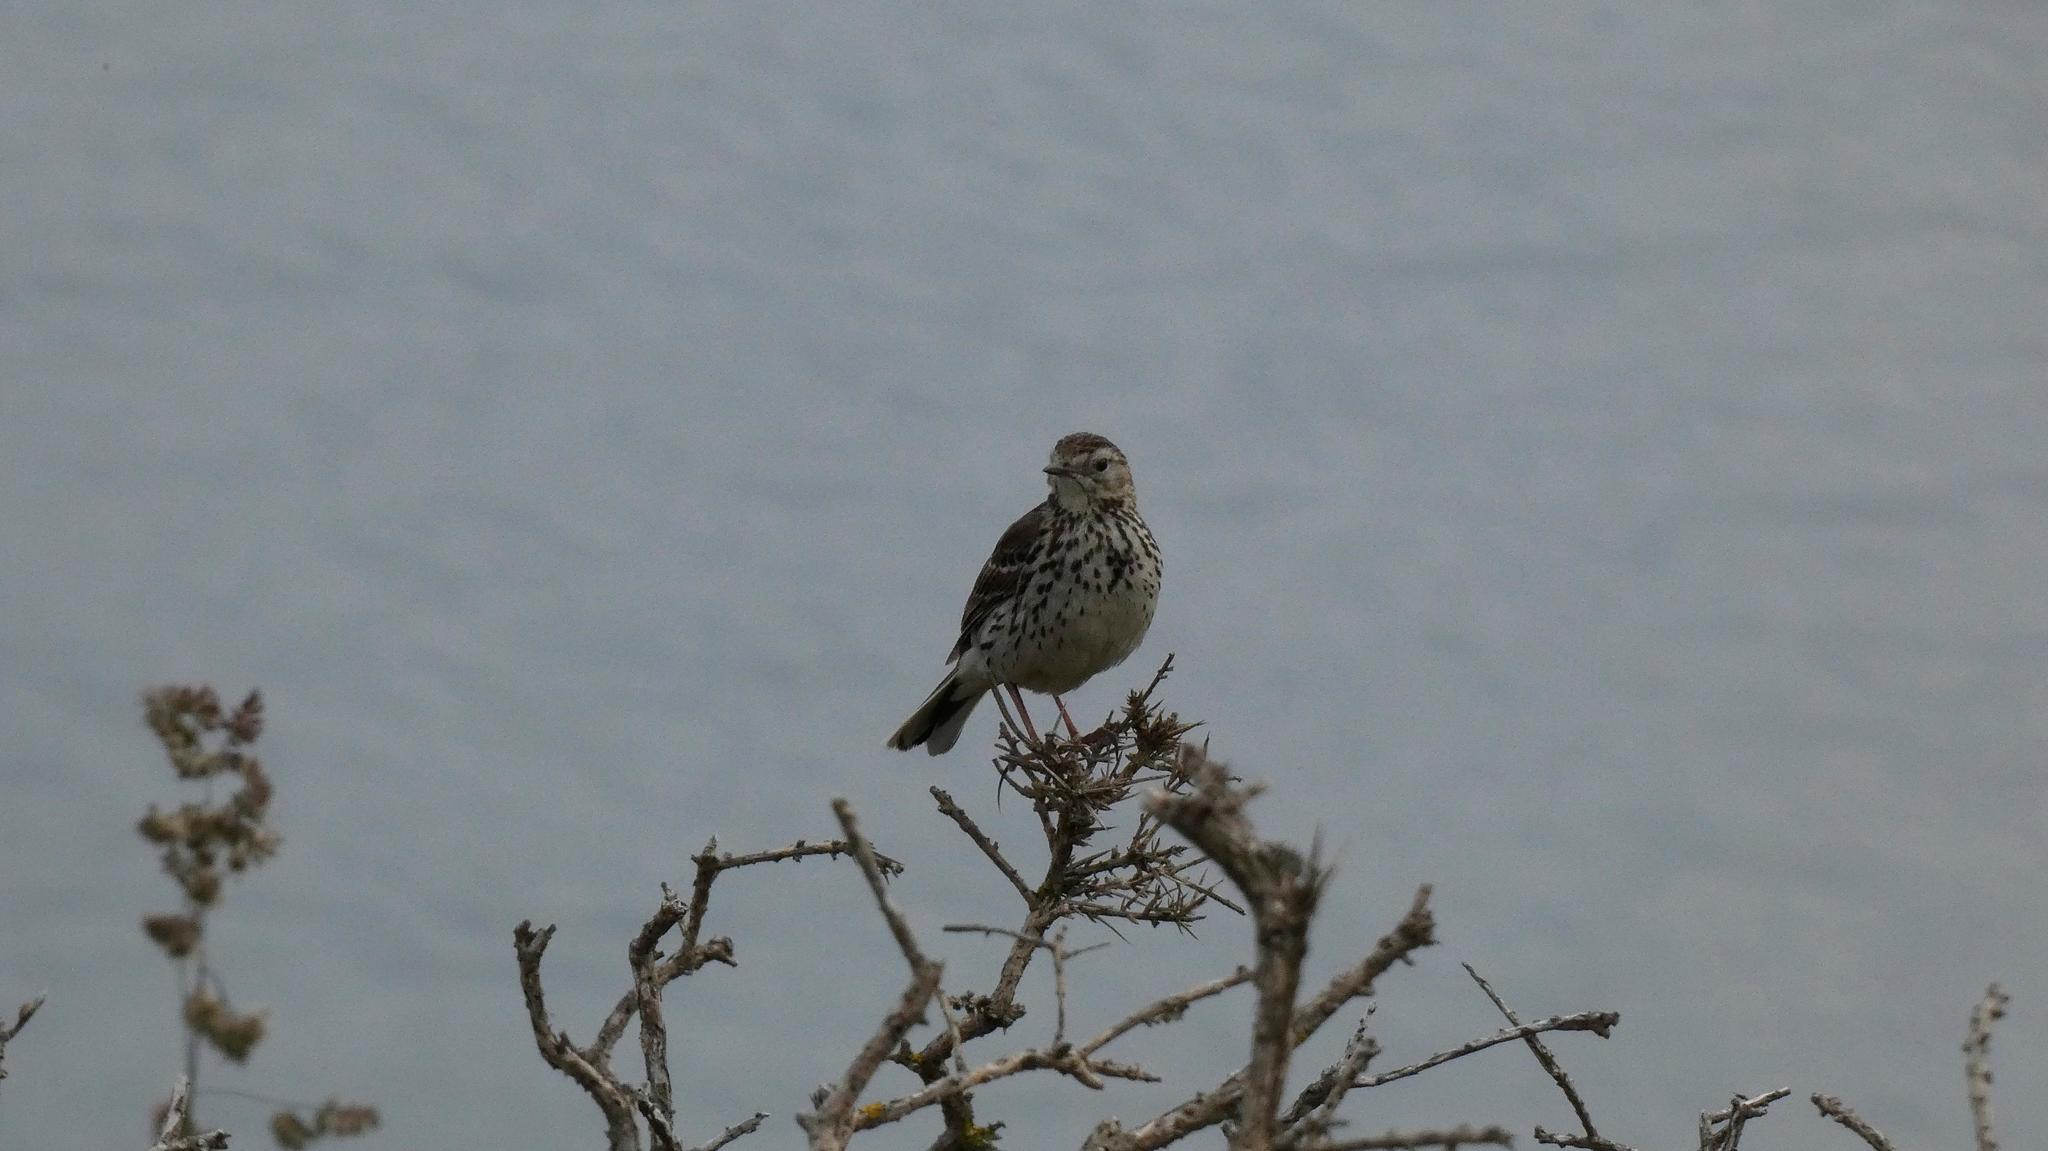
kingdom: Animalia
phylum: Chordata
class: Aves
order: Passeriformes
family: Motacillidae
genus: Anthus
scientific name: Anthus pratensis
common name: Meadow pipit
